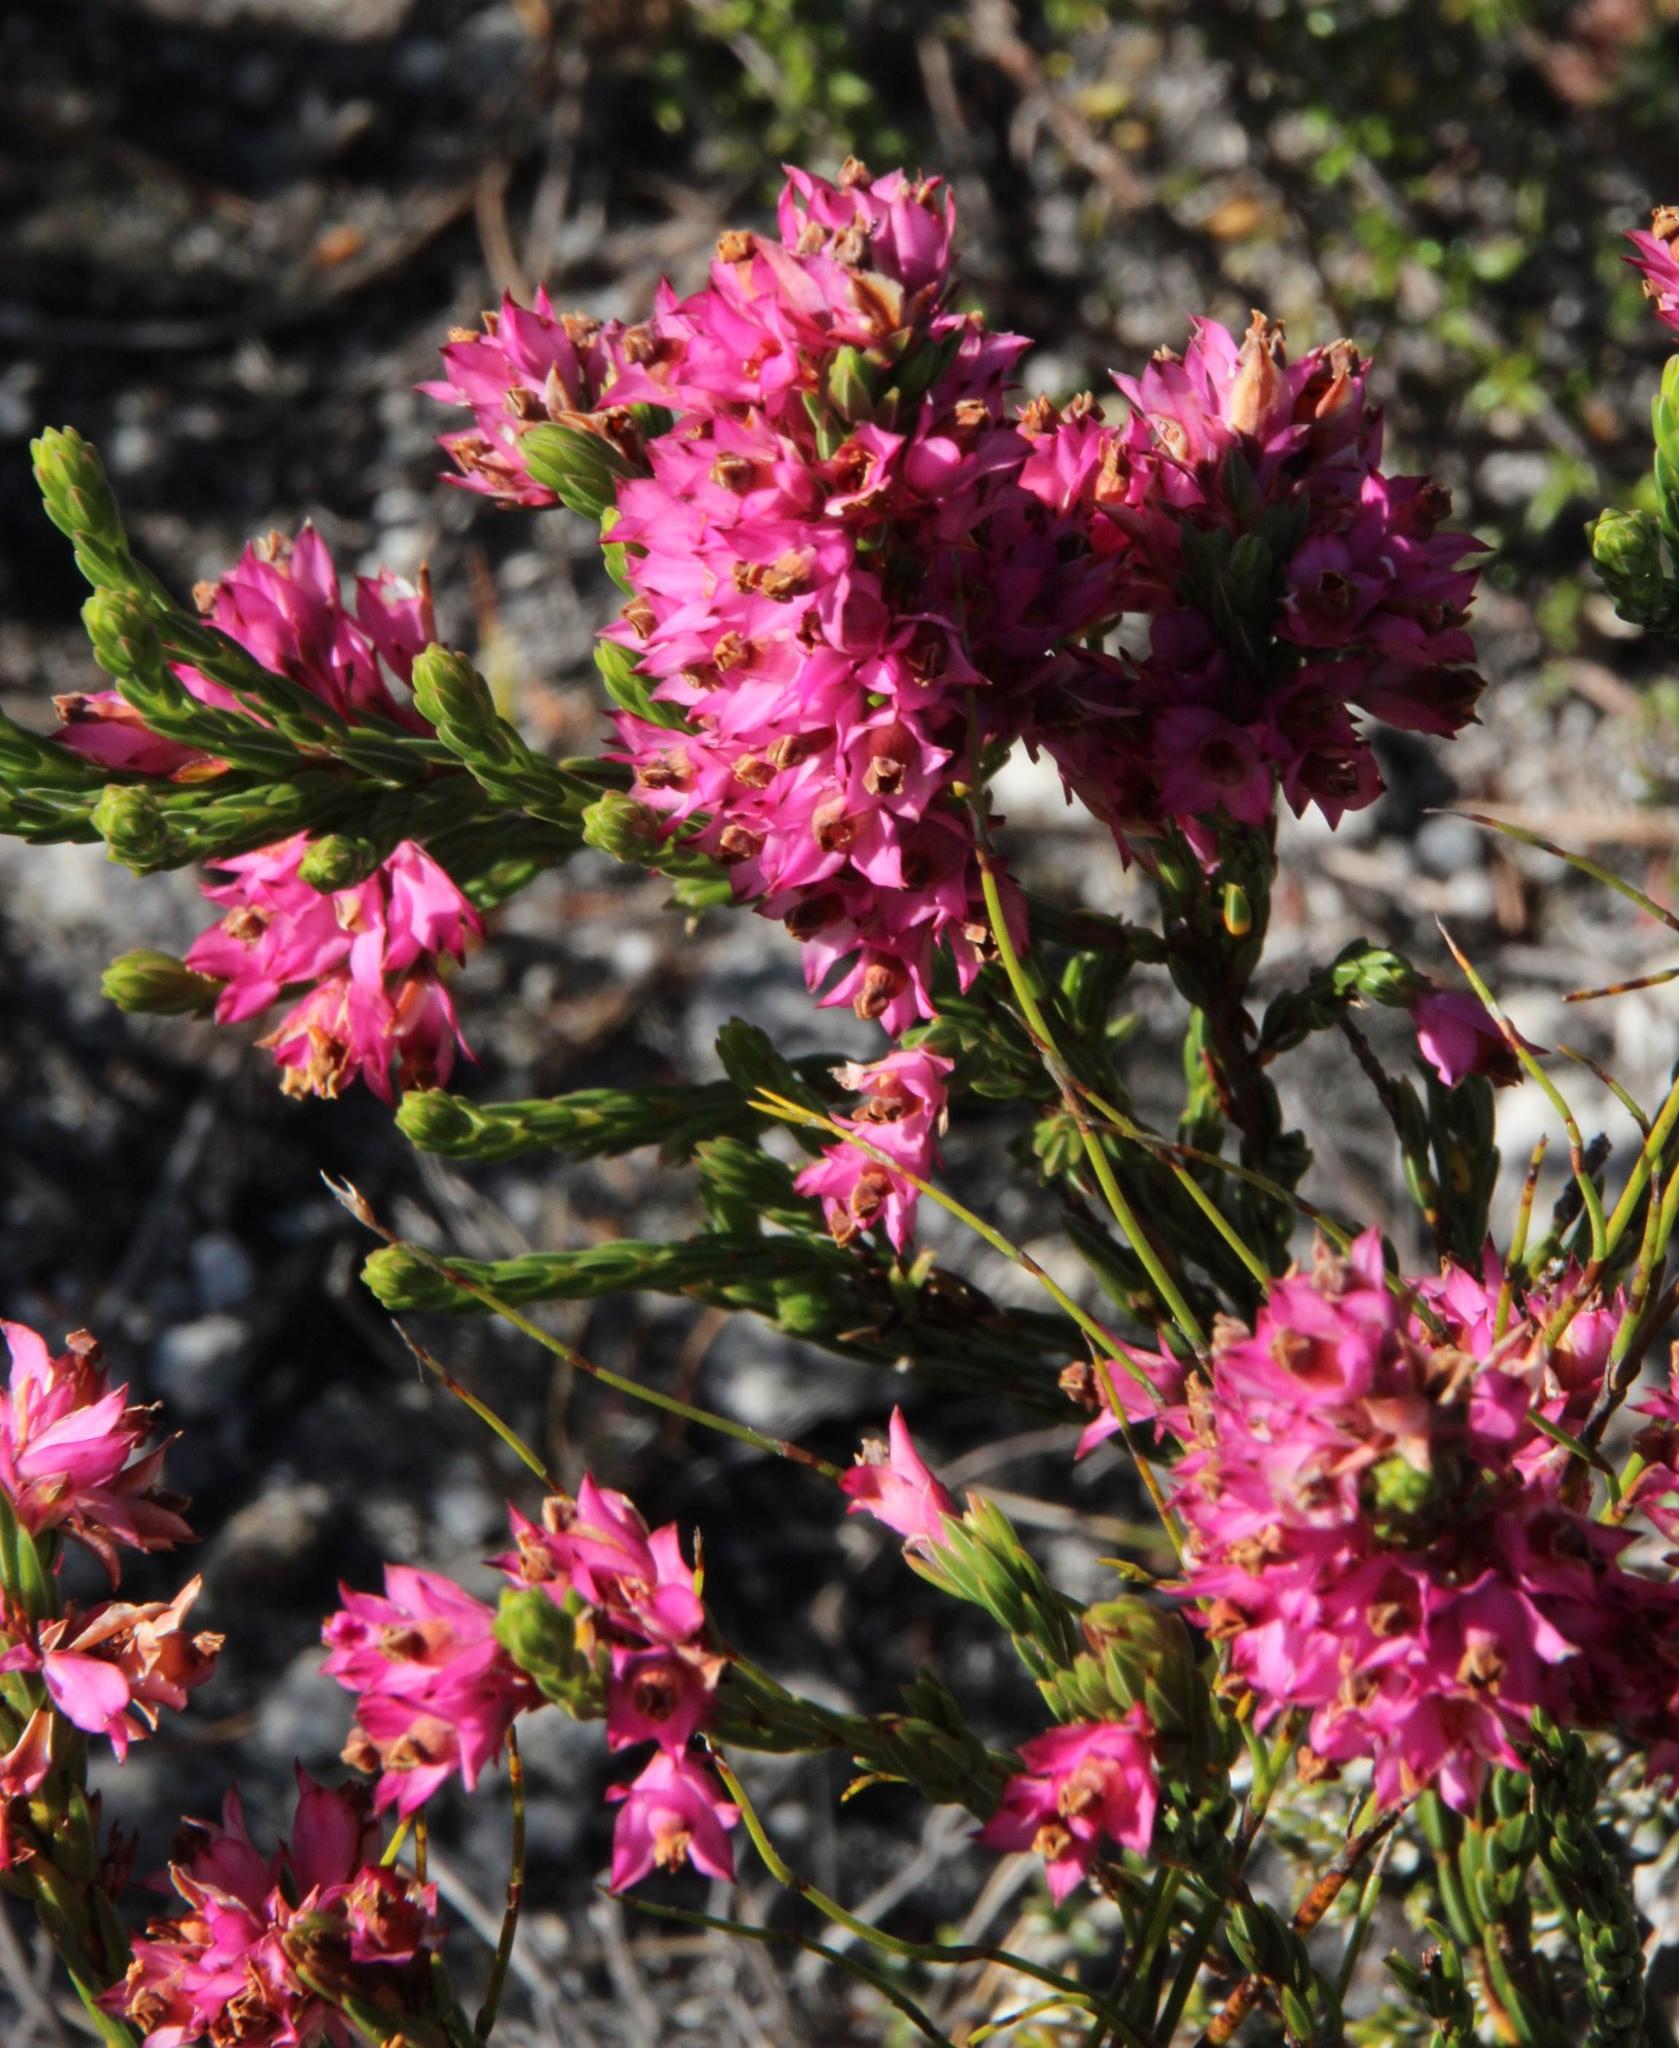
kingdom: Plantae
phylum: Tracheophyta
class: Magnoliopsida
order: Ericales
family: Ericaceae
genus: Erica
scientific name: Erica taxifolia
